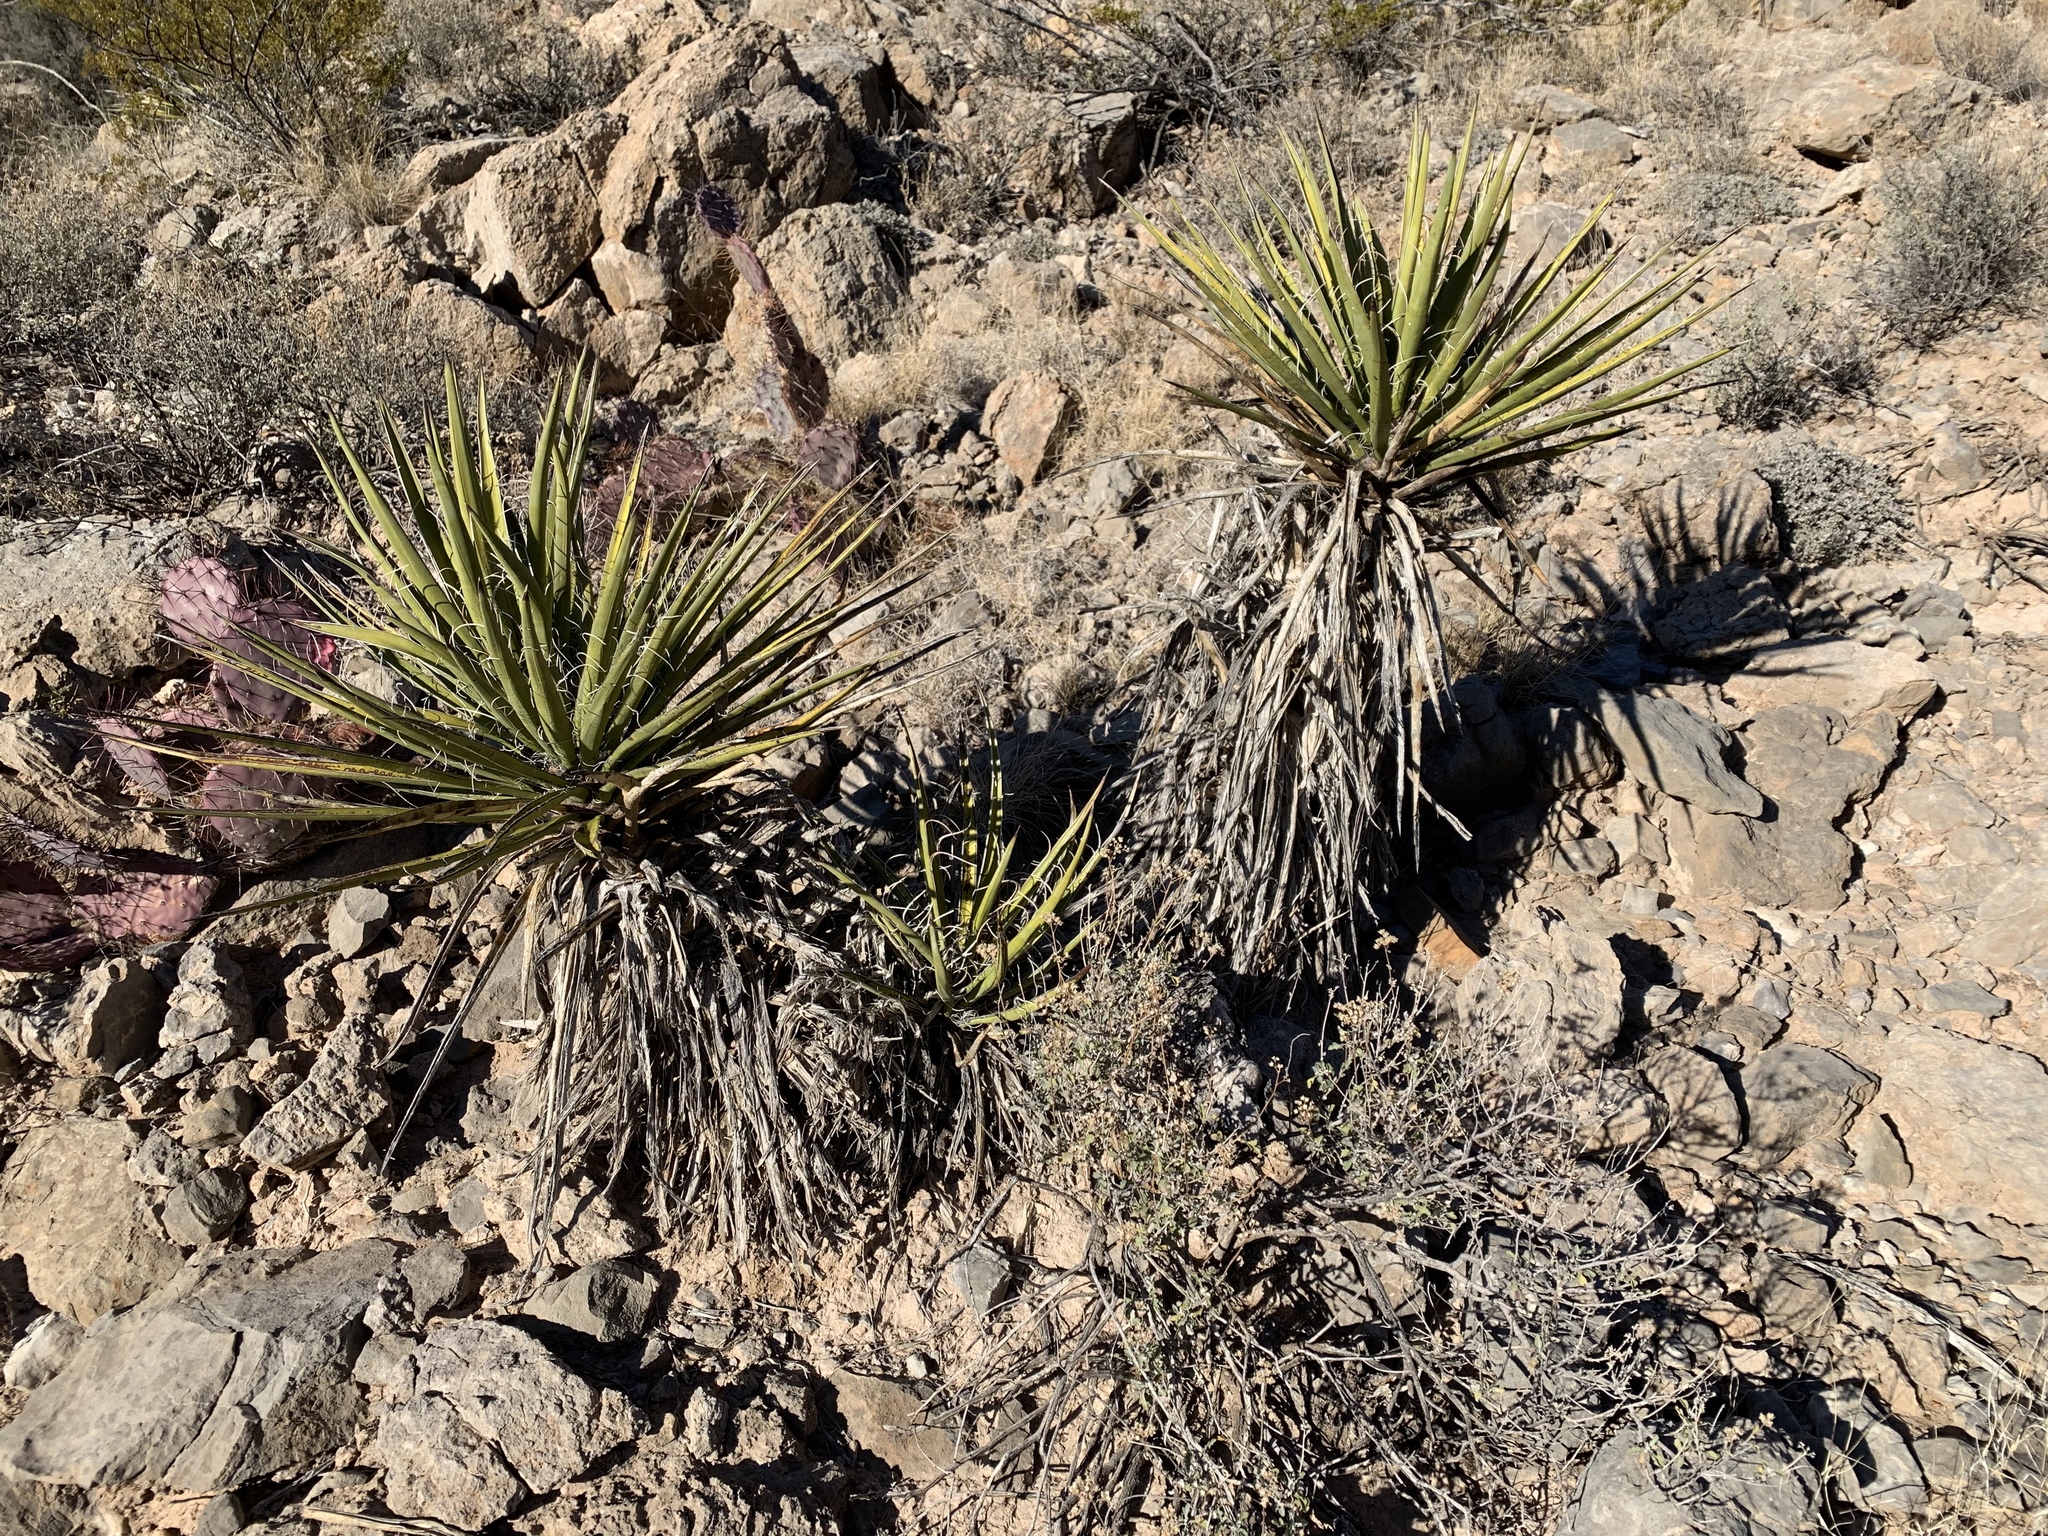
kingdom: Plantae
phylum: Tracheophyta
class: Liliopsida
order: Asparagales
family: Asparagaceae
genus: Yucca
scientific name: Yucca treculiana
